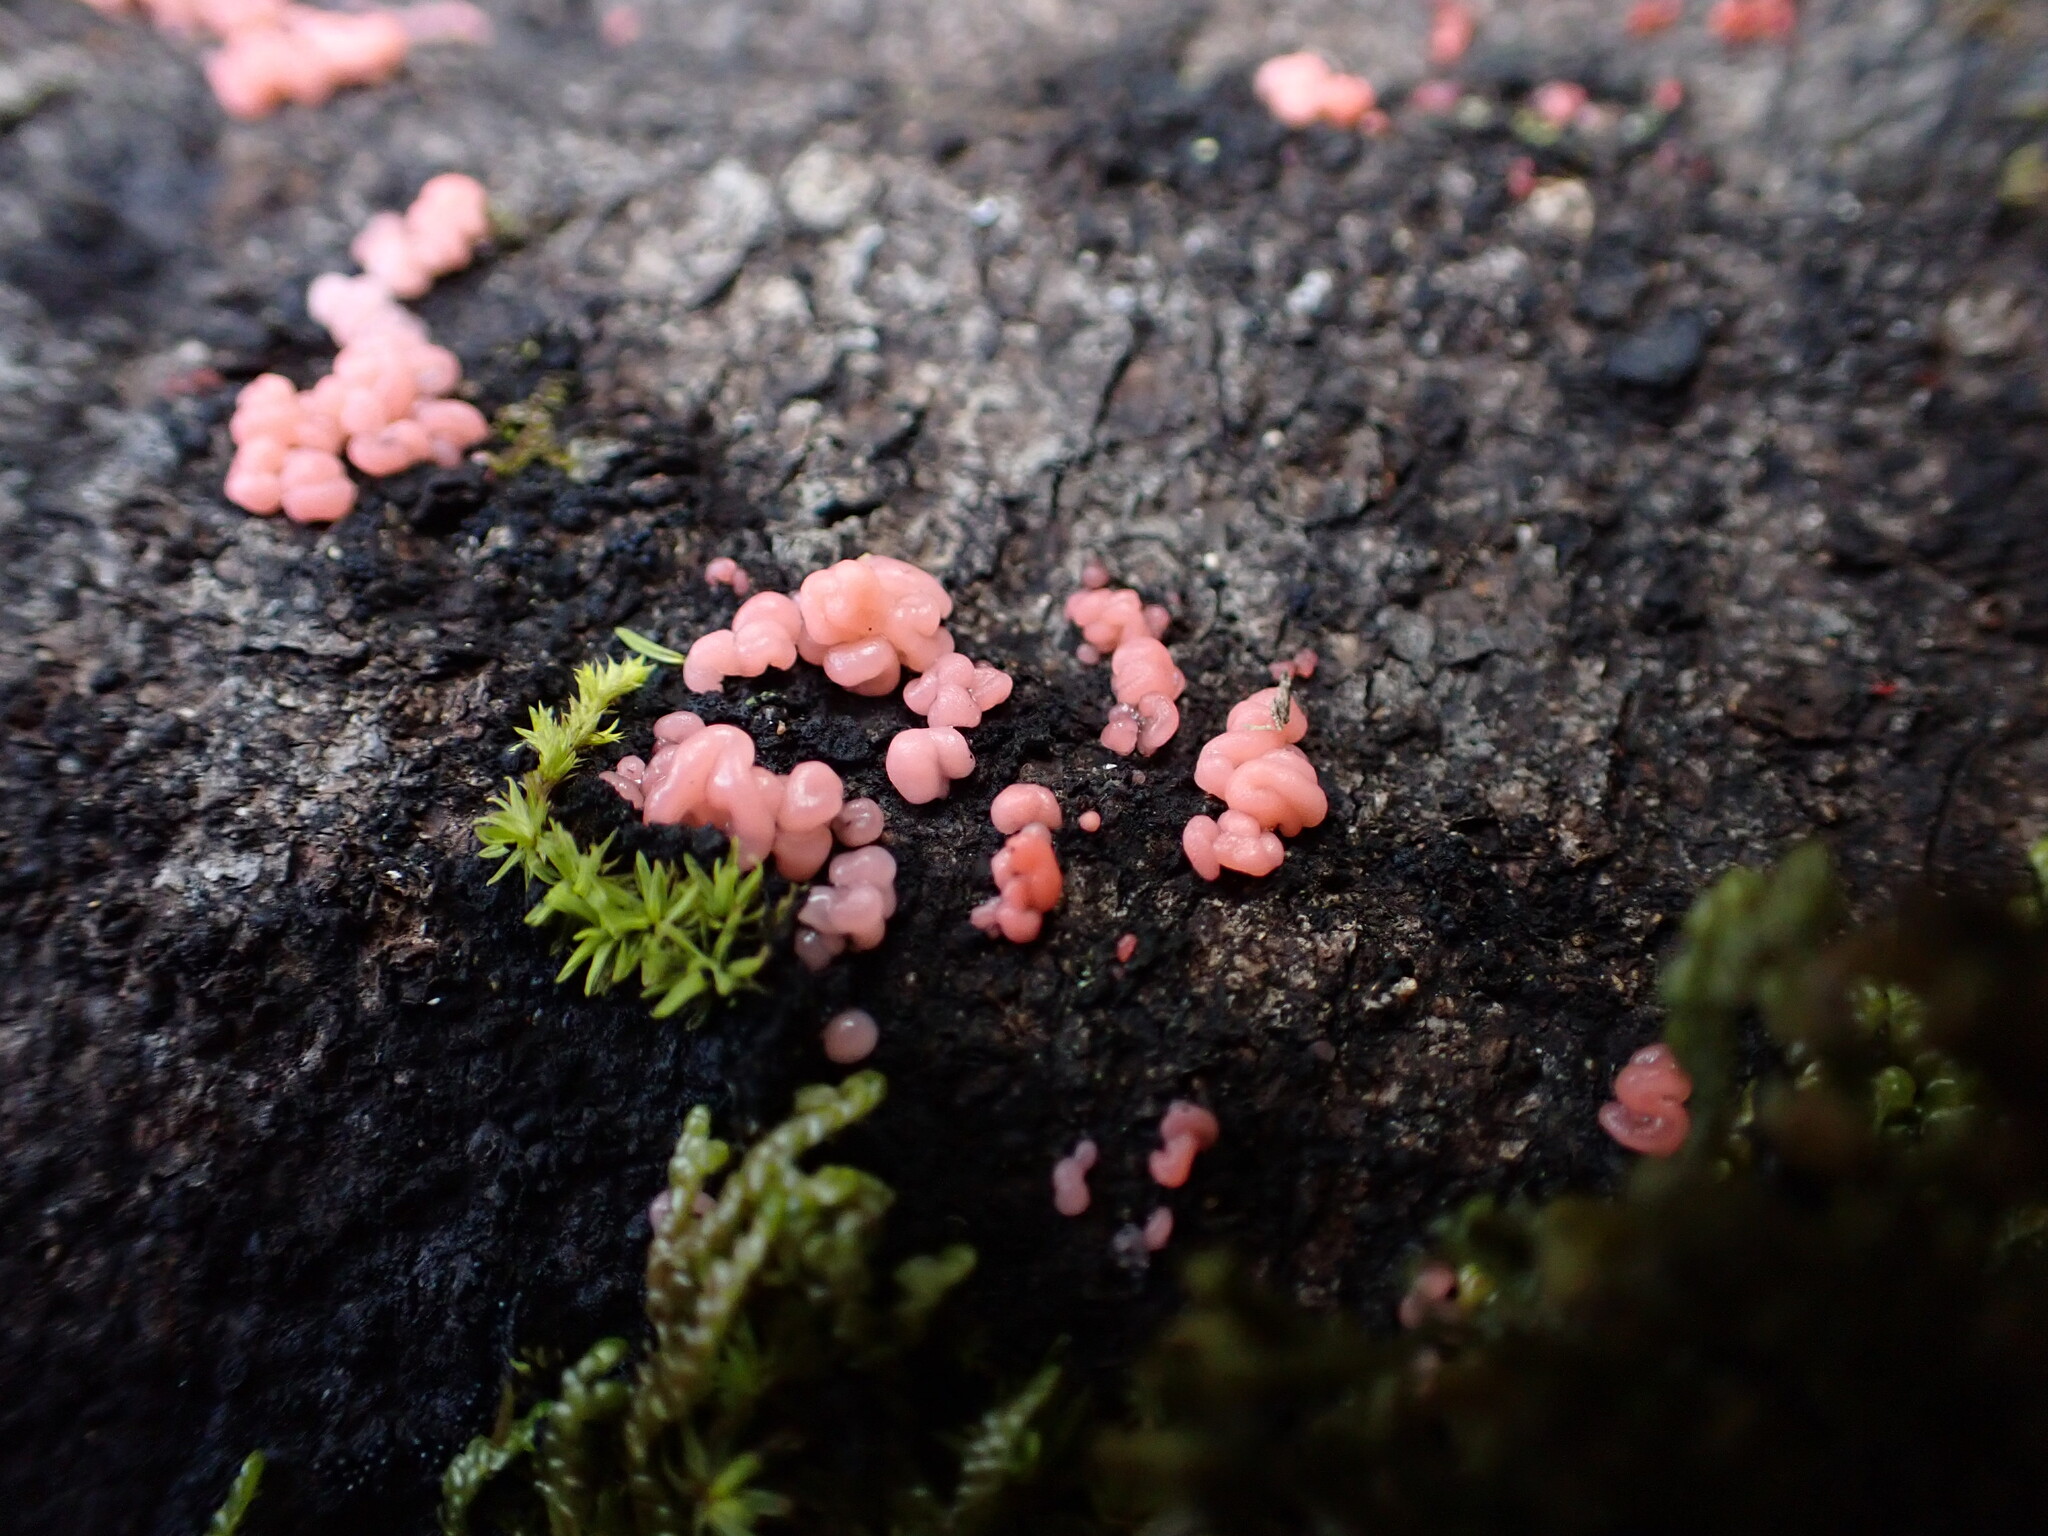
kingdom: Fungi
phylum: Basidiomycota
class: Agaricostilbomycetes
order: Agaricostilbales
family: Chionosphaeraceae
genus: Mycogloea
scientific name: Mycogloea macrospora
